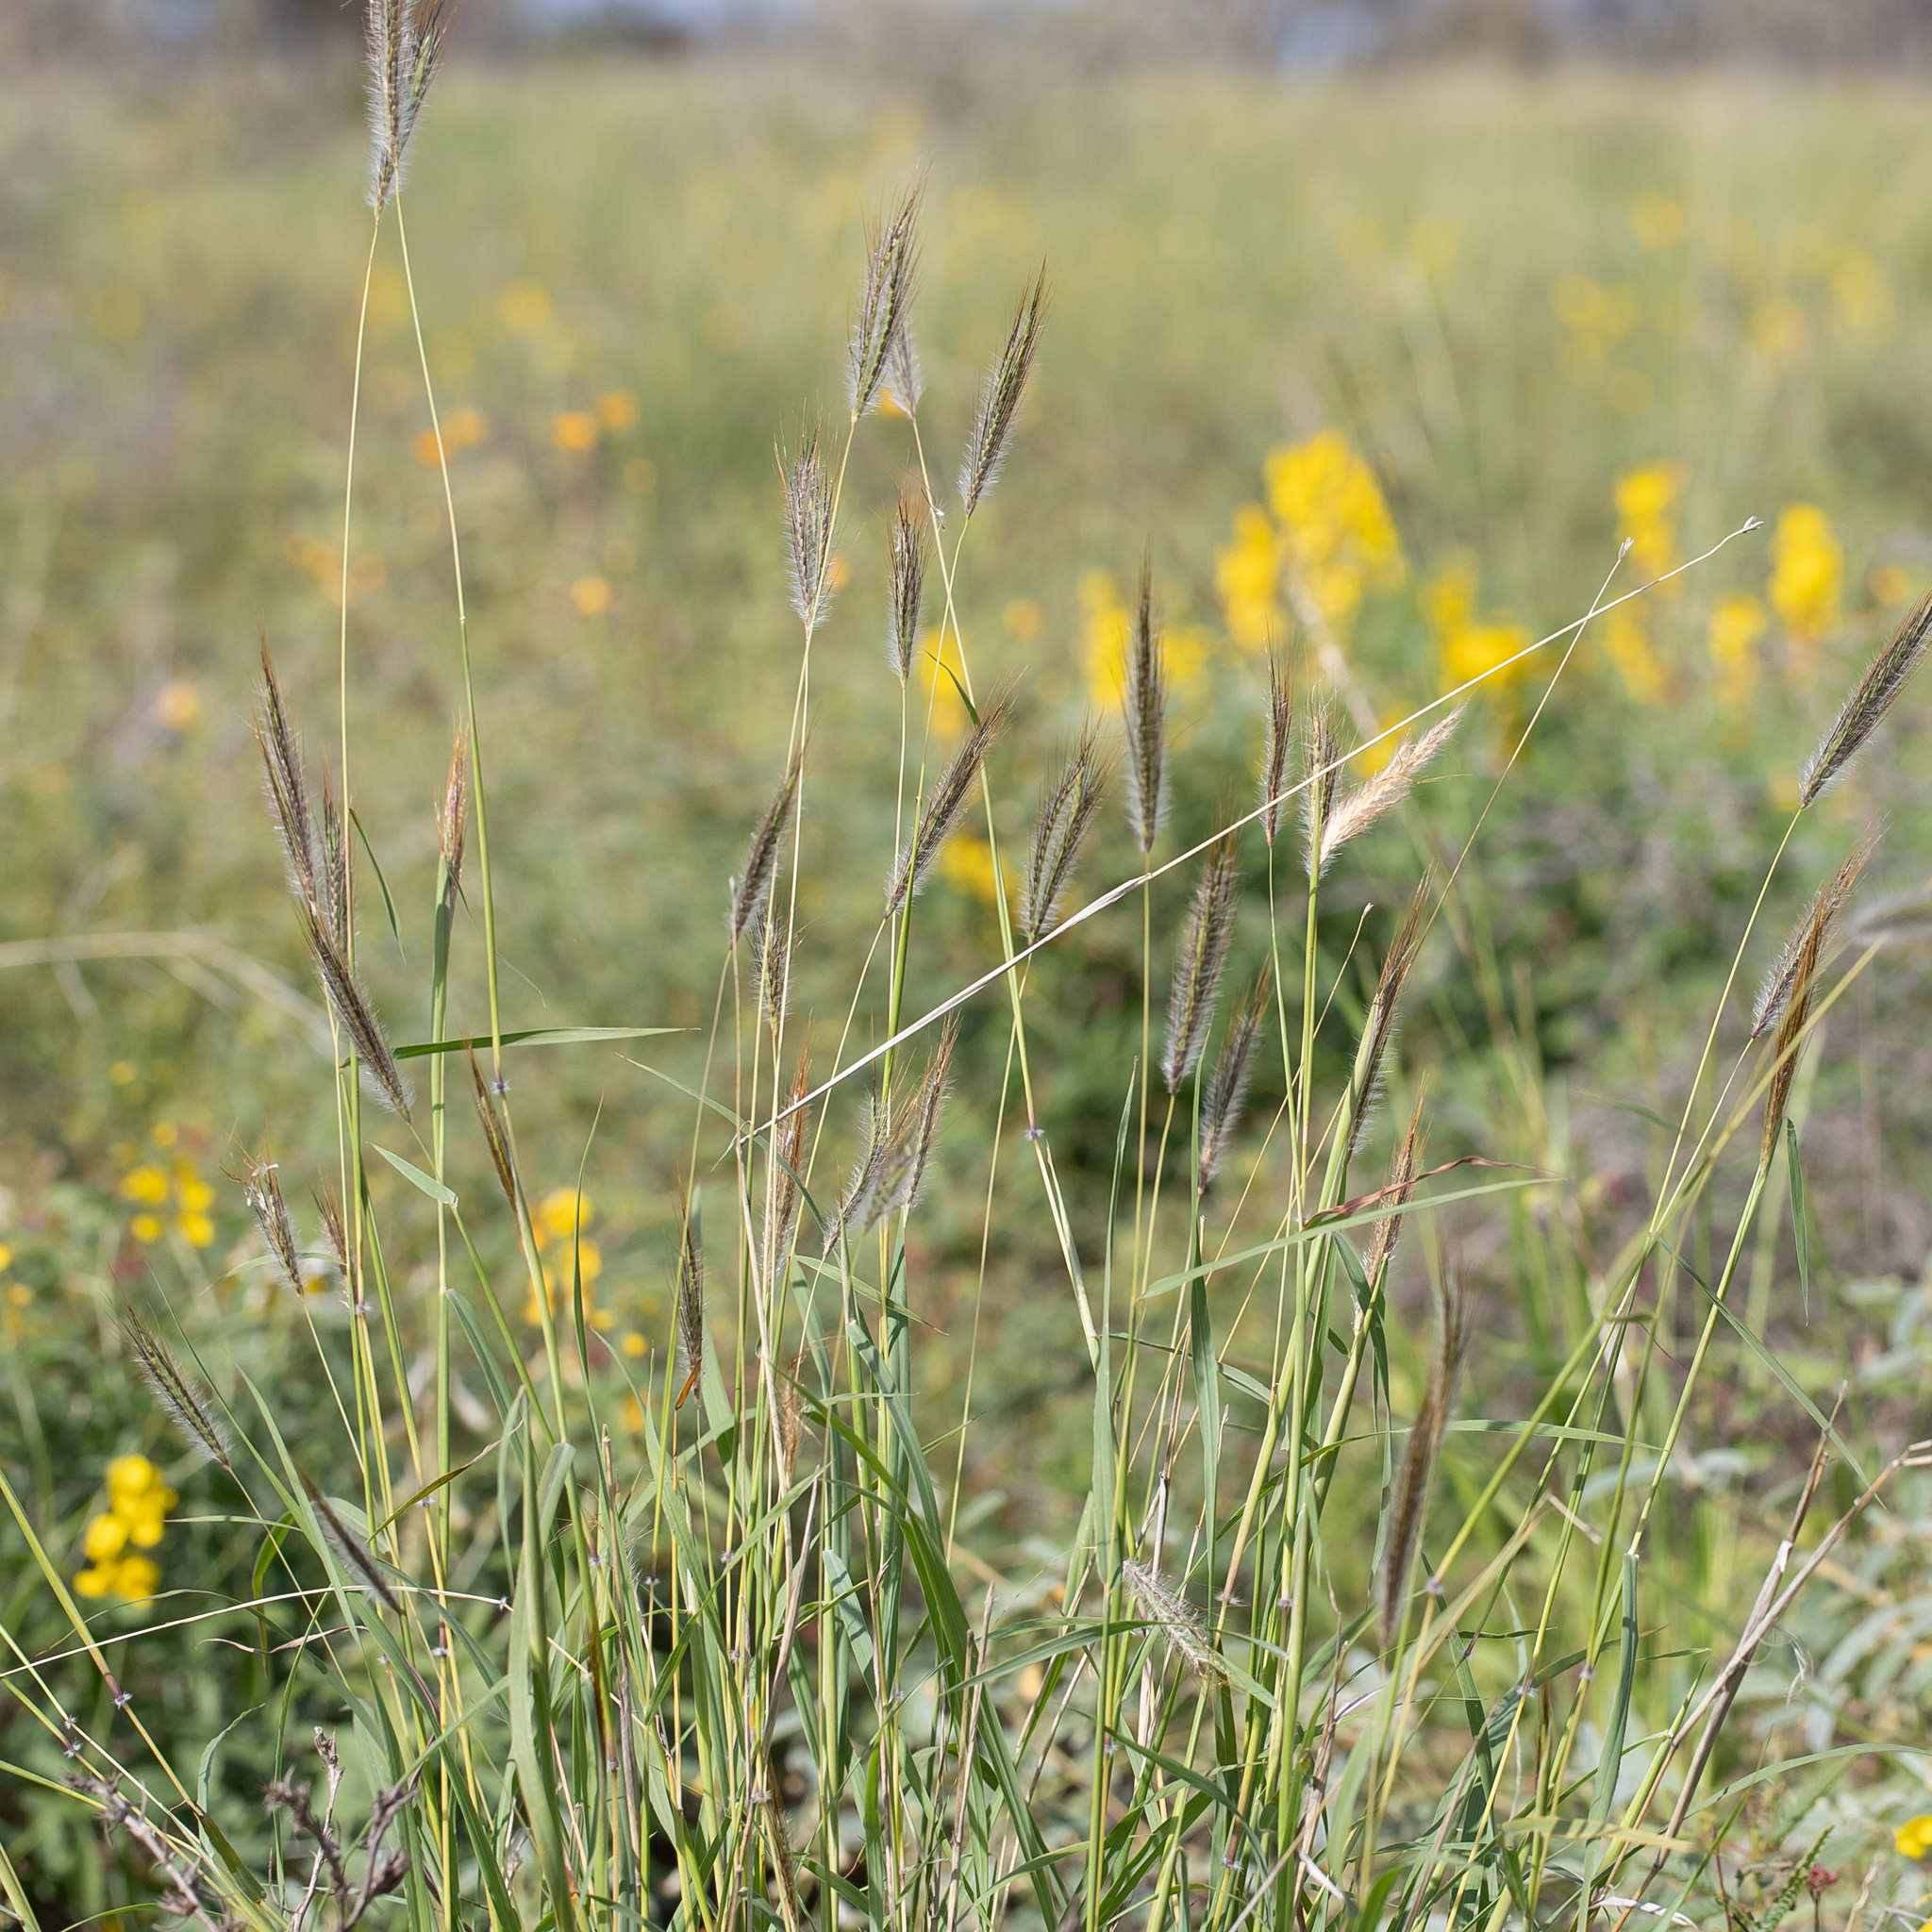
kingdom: Plantae
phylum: Tracheophyta
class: Liliopsida
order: Poales
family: Poaceae
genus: Dichanthium
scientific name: Dichanthium sericeum
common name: Silky bluestem
